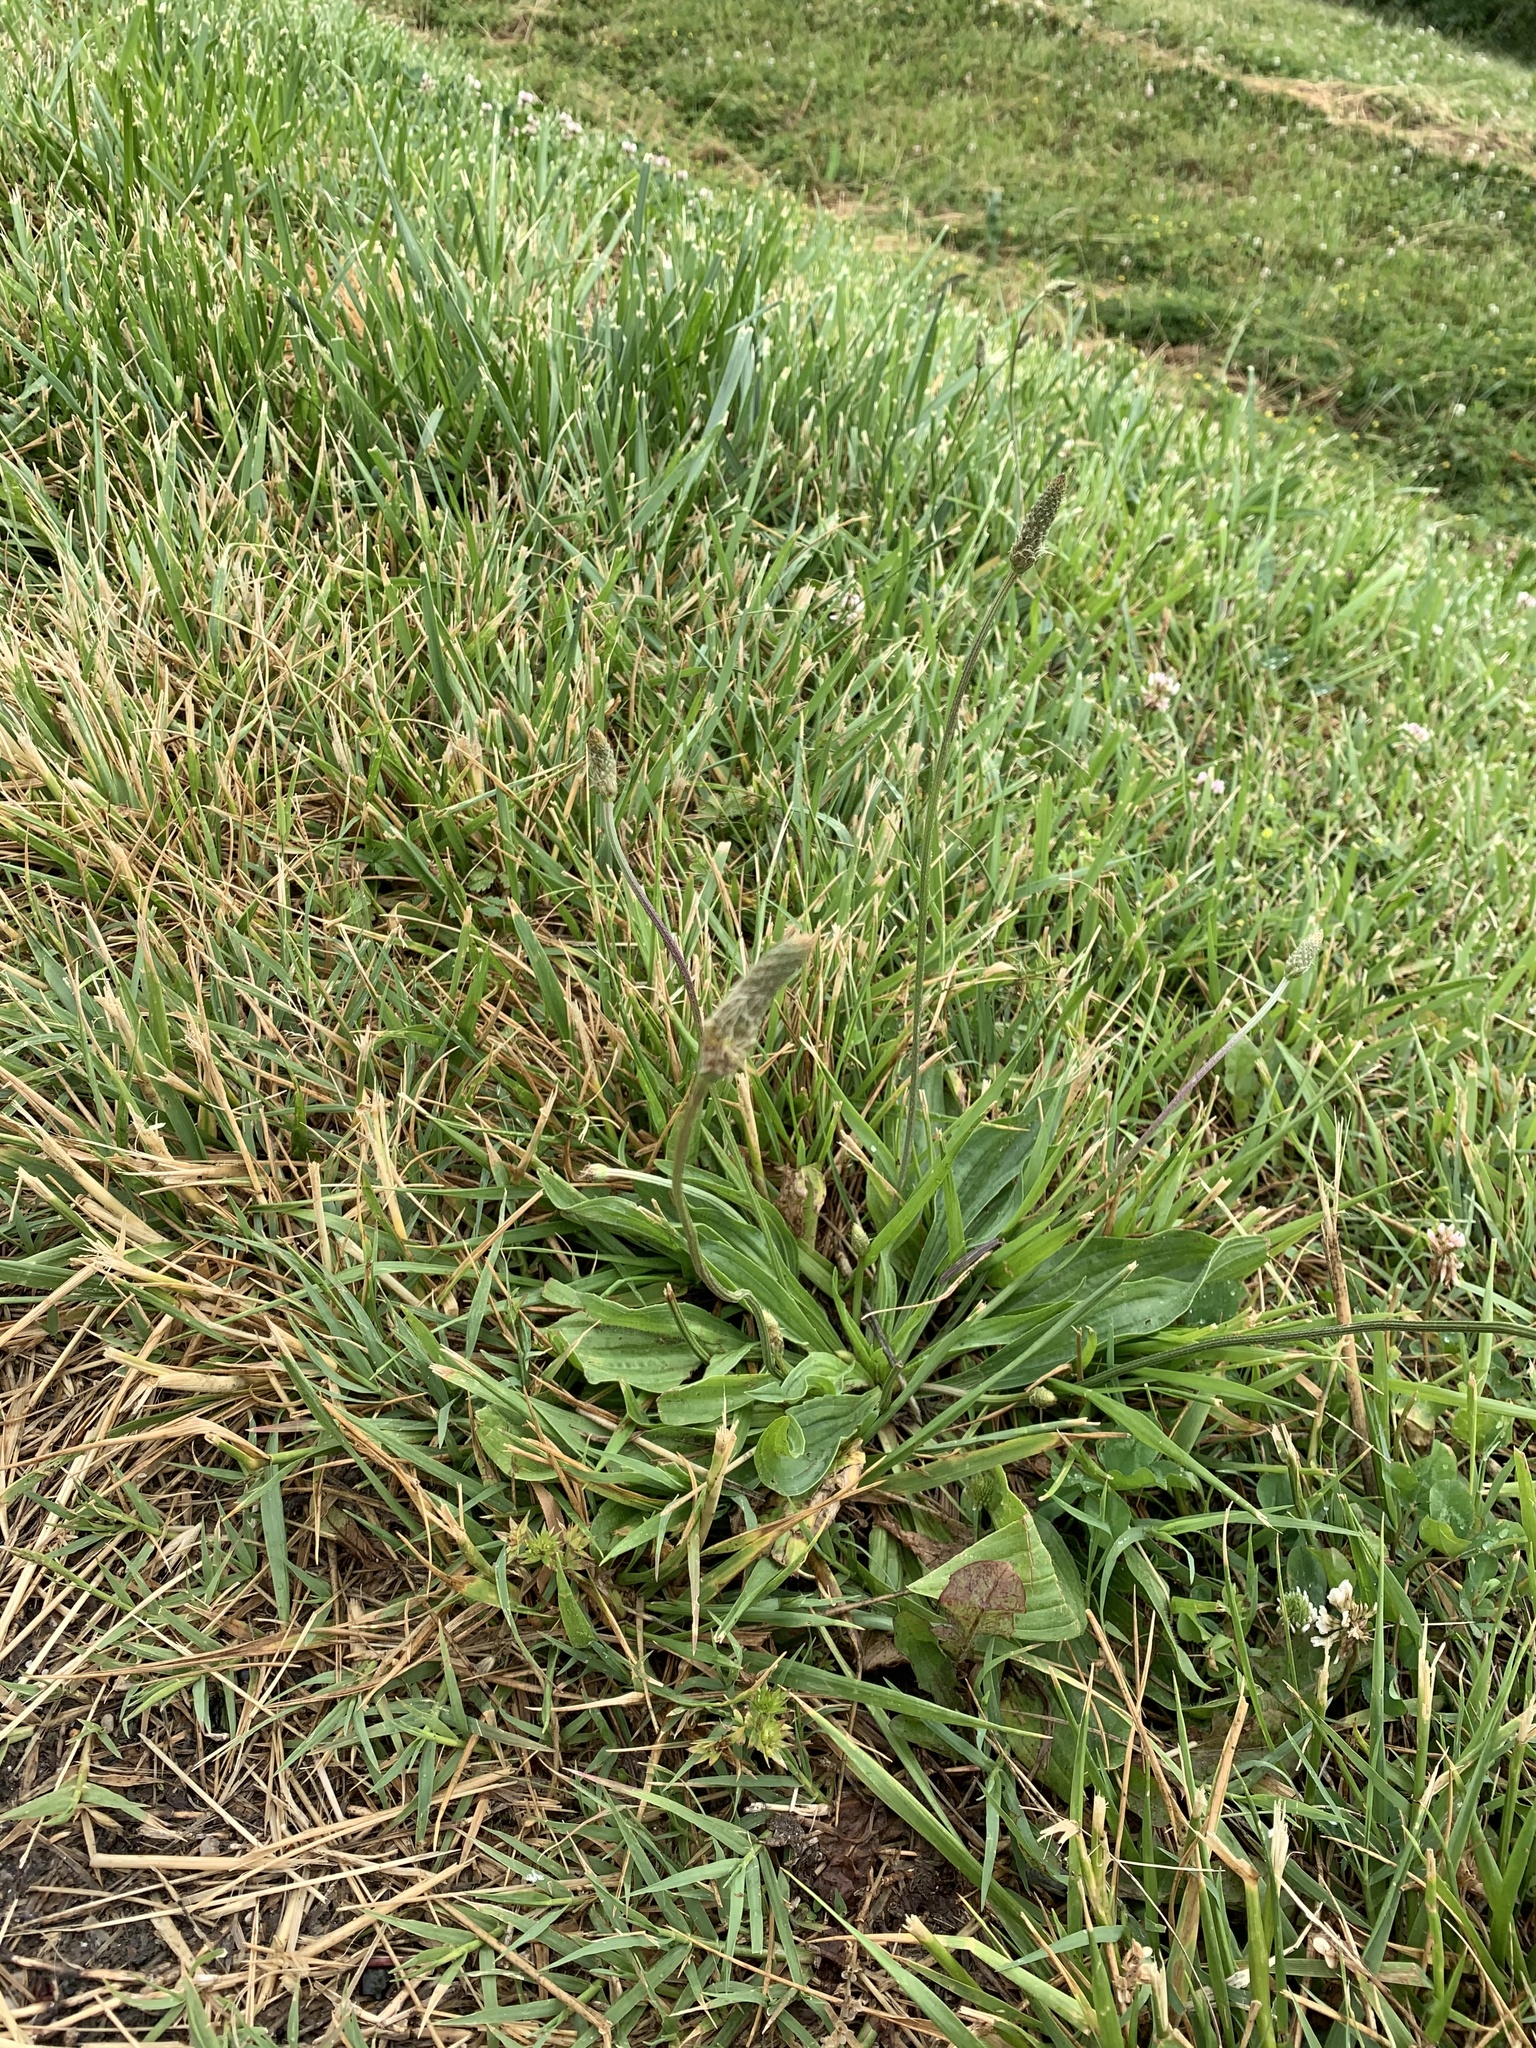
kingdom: Plantae
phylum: Tracheophyta
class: Magnoliopsida
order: Lamiales
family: Plantaginaceae
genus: Plantago
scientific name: Plantago lanceolata
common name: Ribwort plantain
